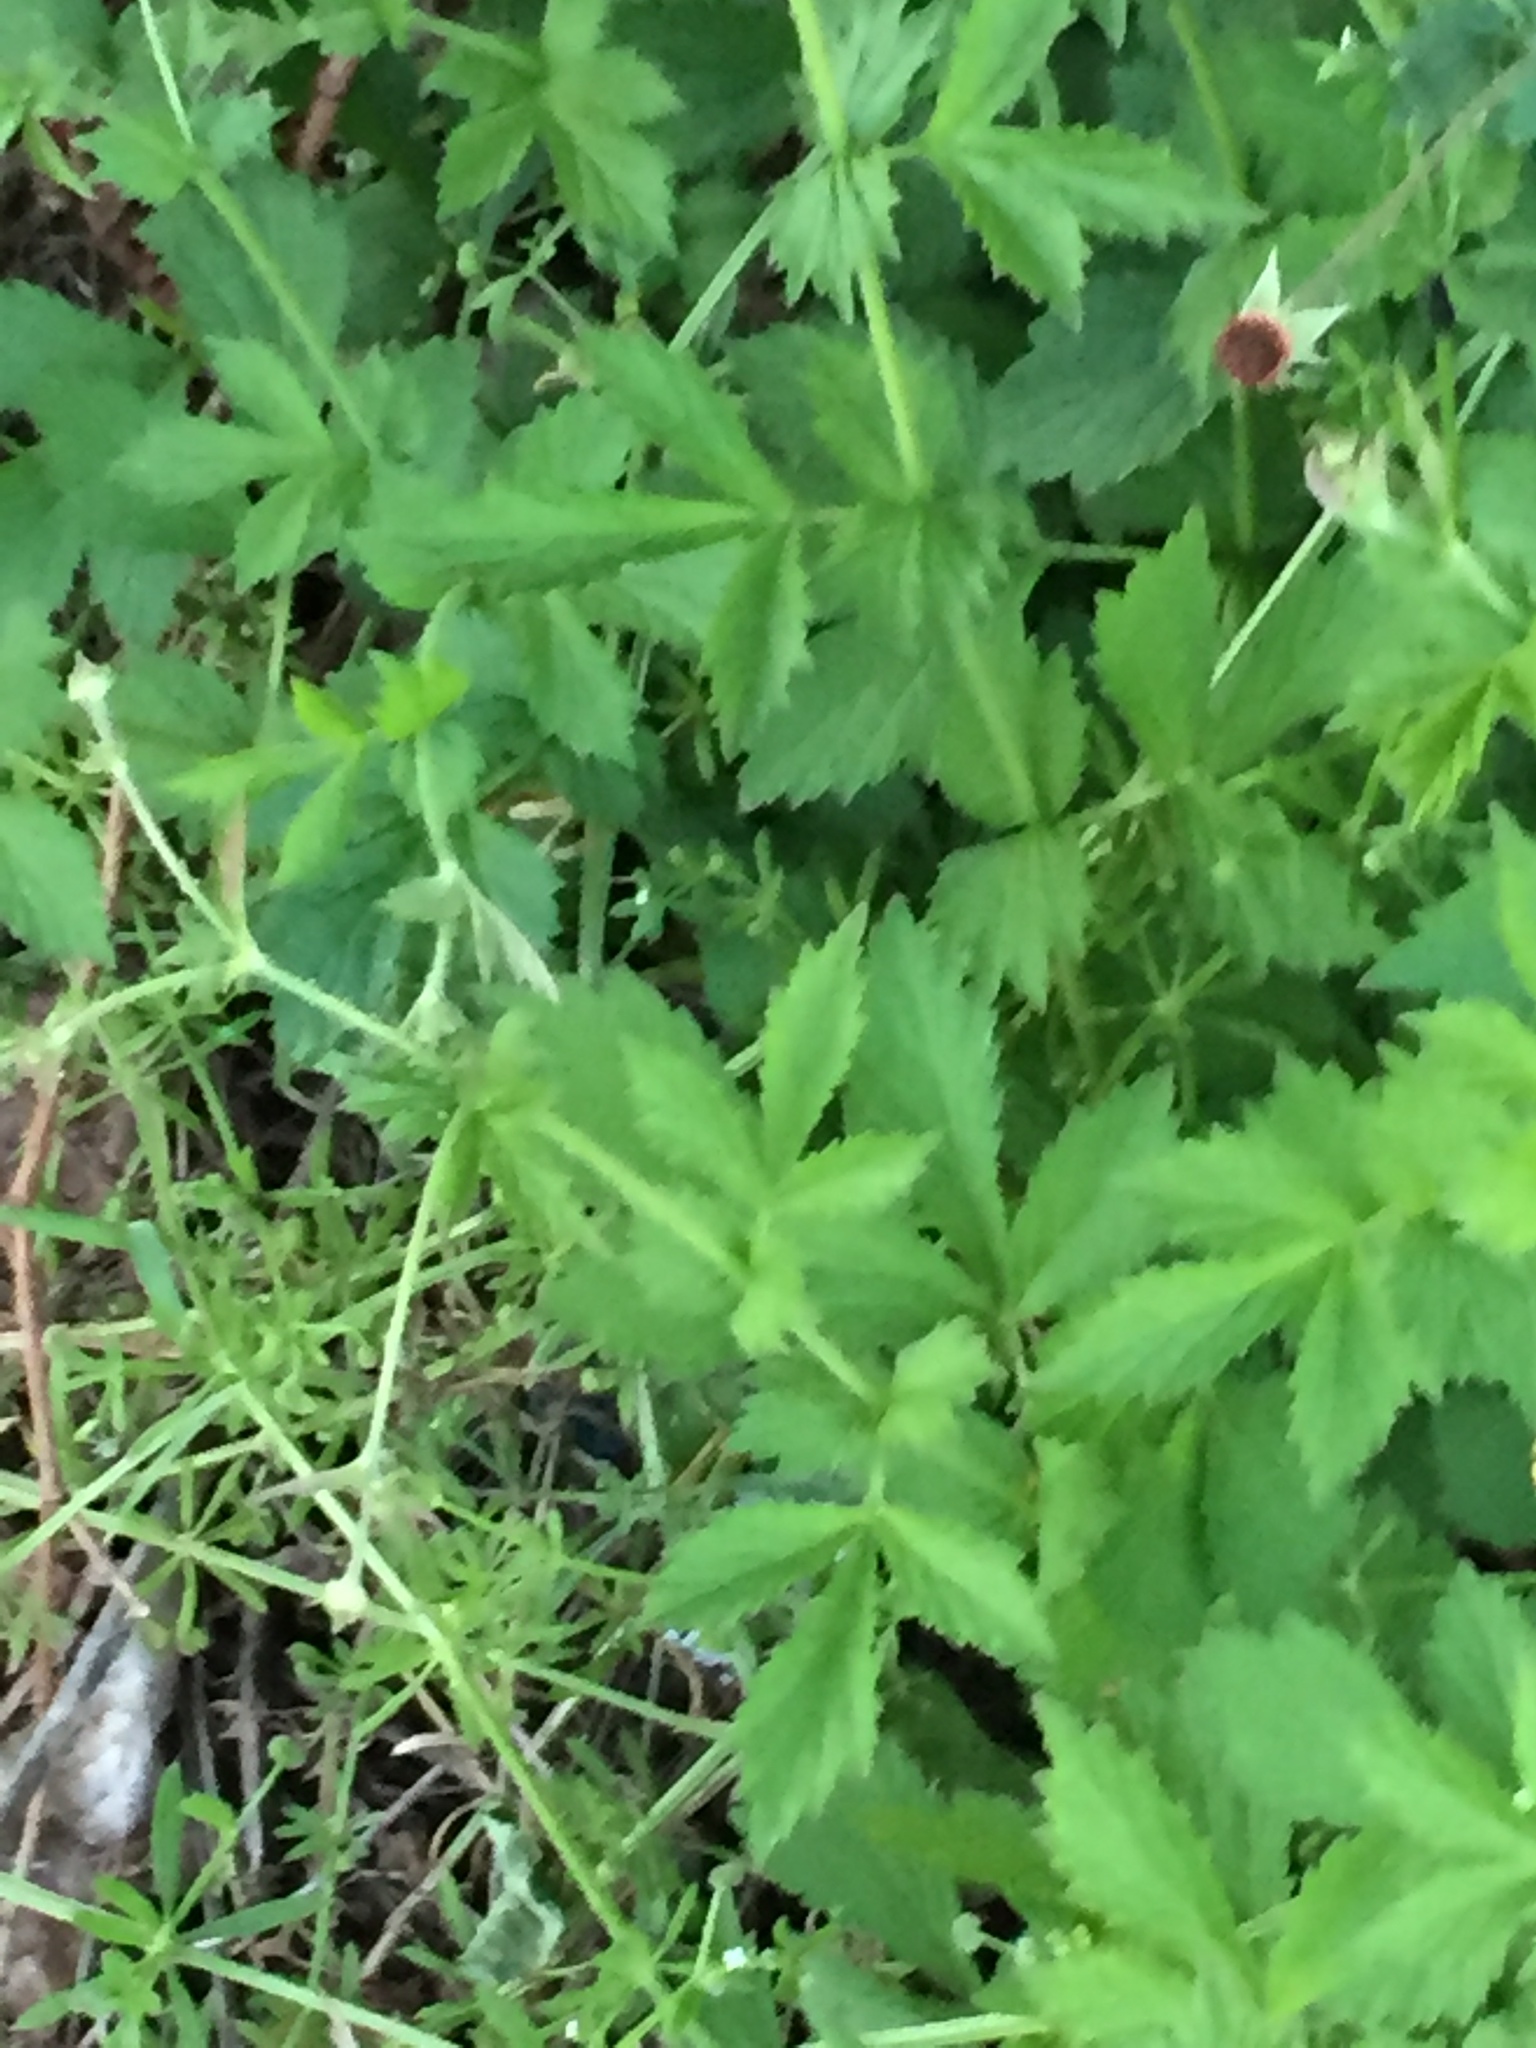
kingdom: Plantae
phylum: Tracheophyta
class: Magnoliopsida
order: Rosales
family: Rosaceae
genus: Geum
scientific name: Geum urbanum
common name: Wood avens
